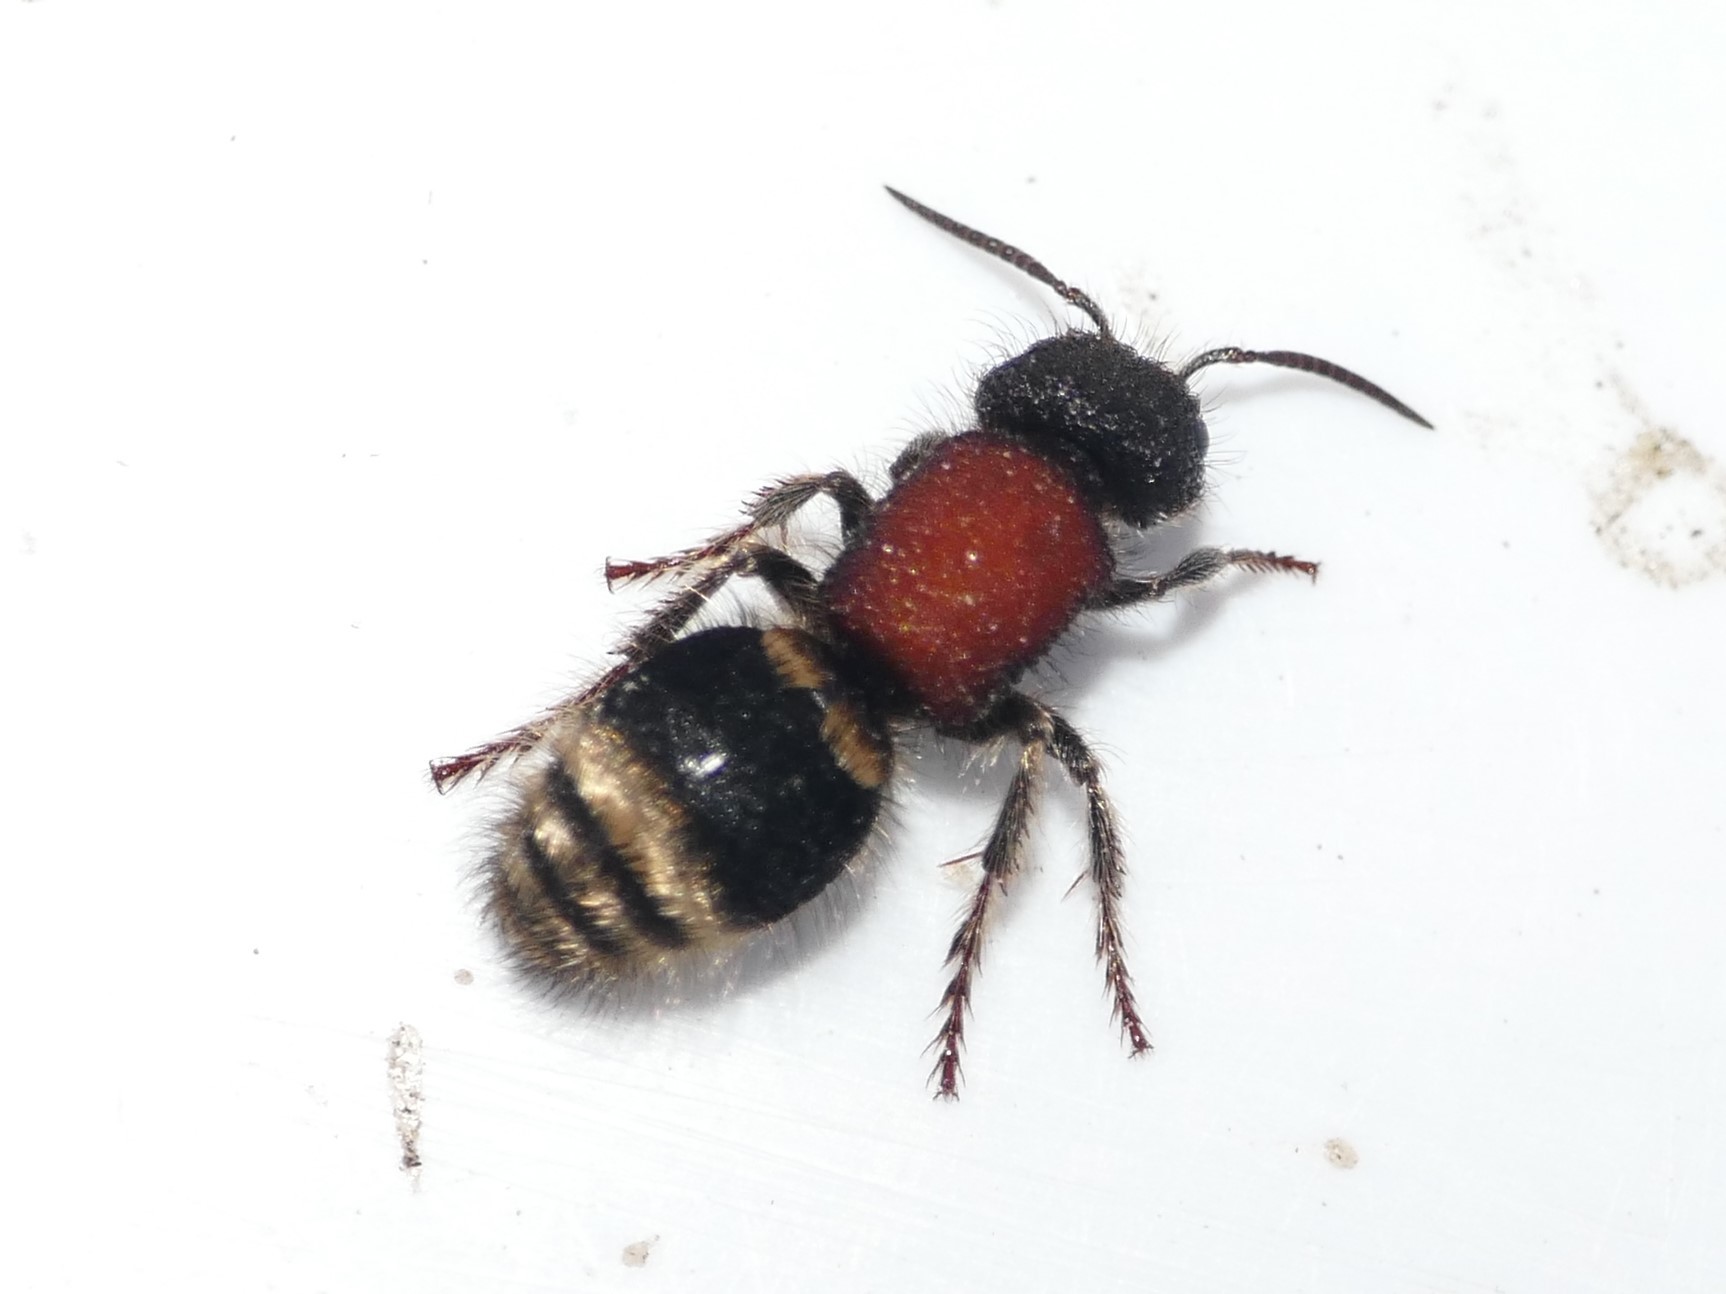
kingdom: Animalia
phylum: Arthropoda
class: Insecta
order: Hymenoptera
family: Mutillidae
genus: Tropidotilla
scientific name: Tropidotilla litoralis
